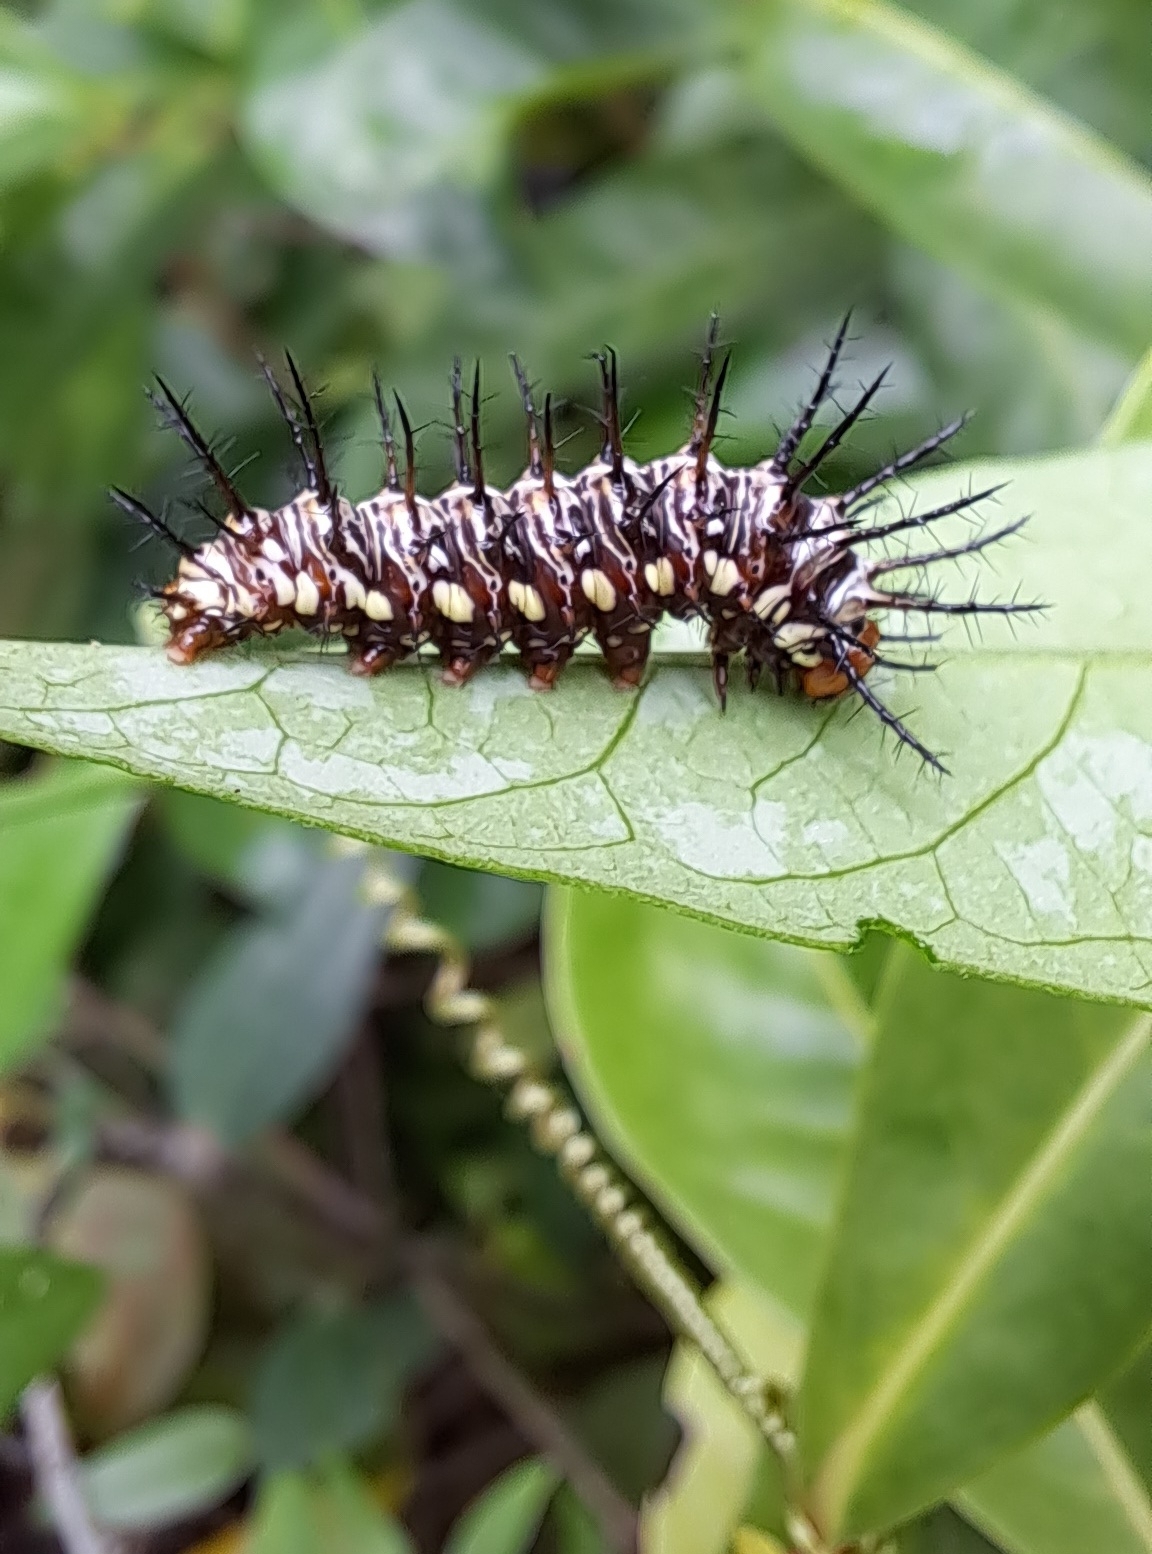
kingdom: Animalia
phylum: Arthropoda
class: Insecta
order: Lepidoptera
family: Nymphalidae
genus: Dryas
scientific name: Dryas iulia
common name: Flambeau
